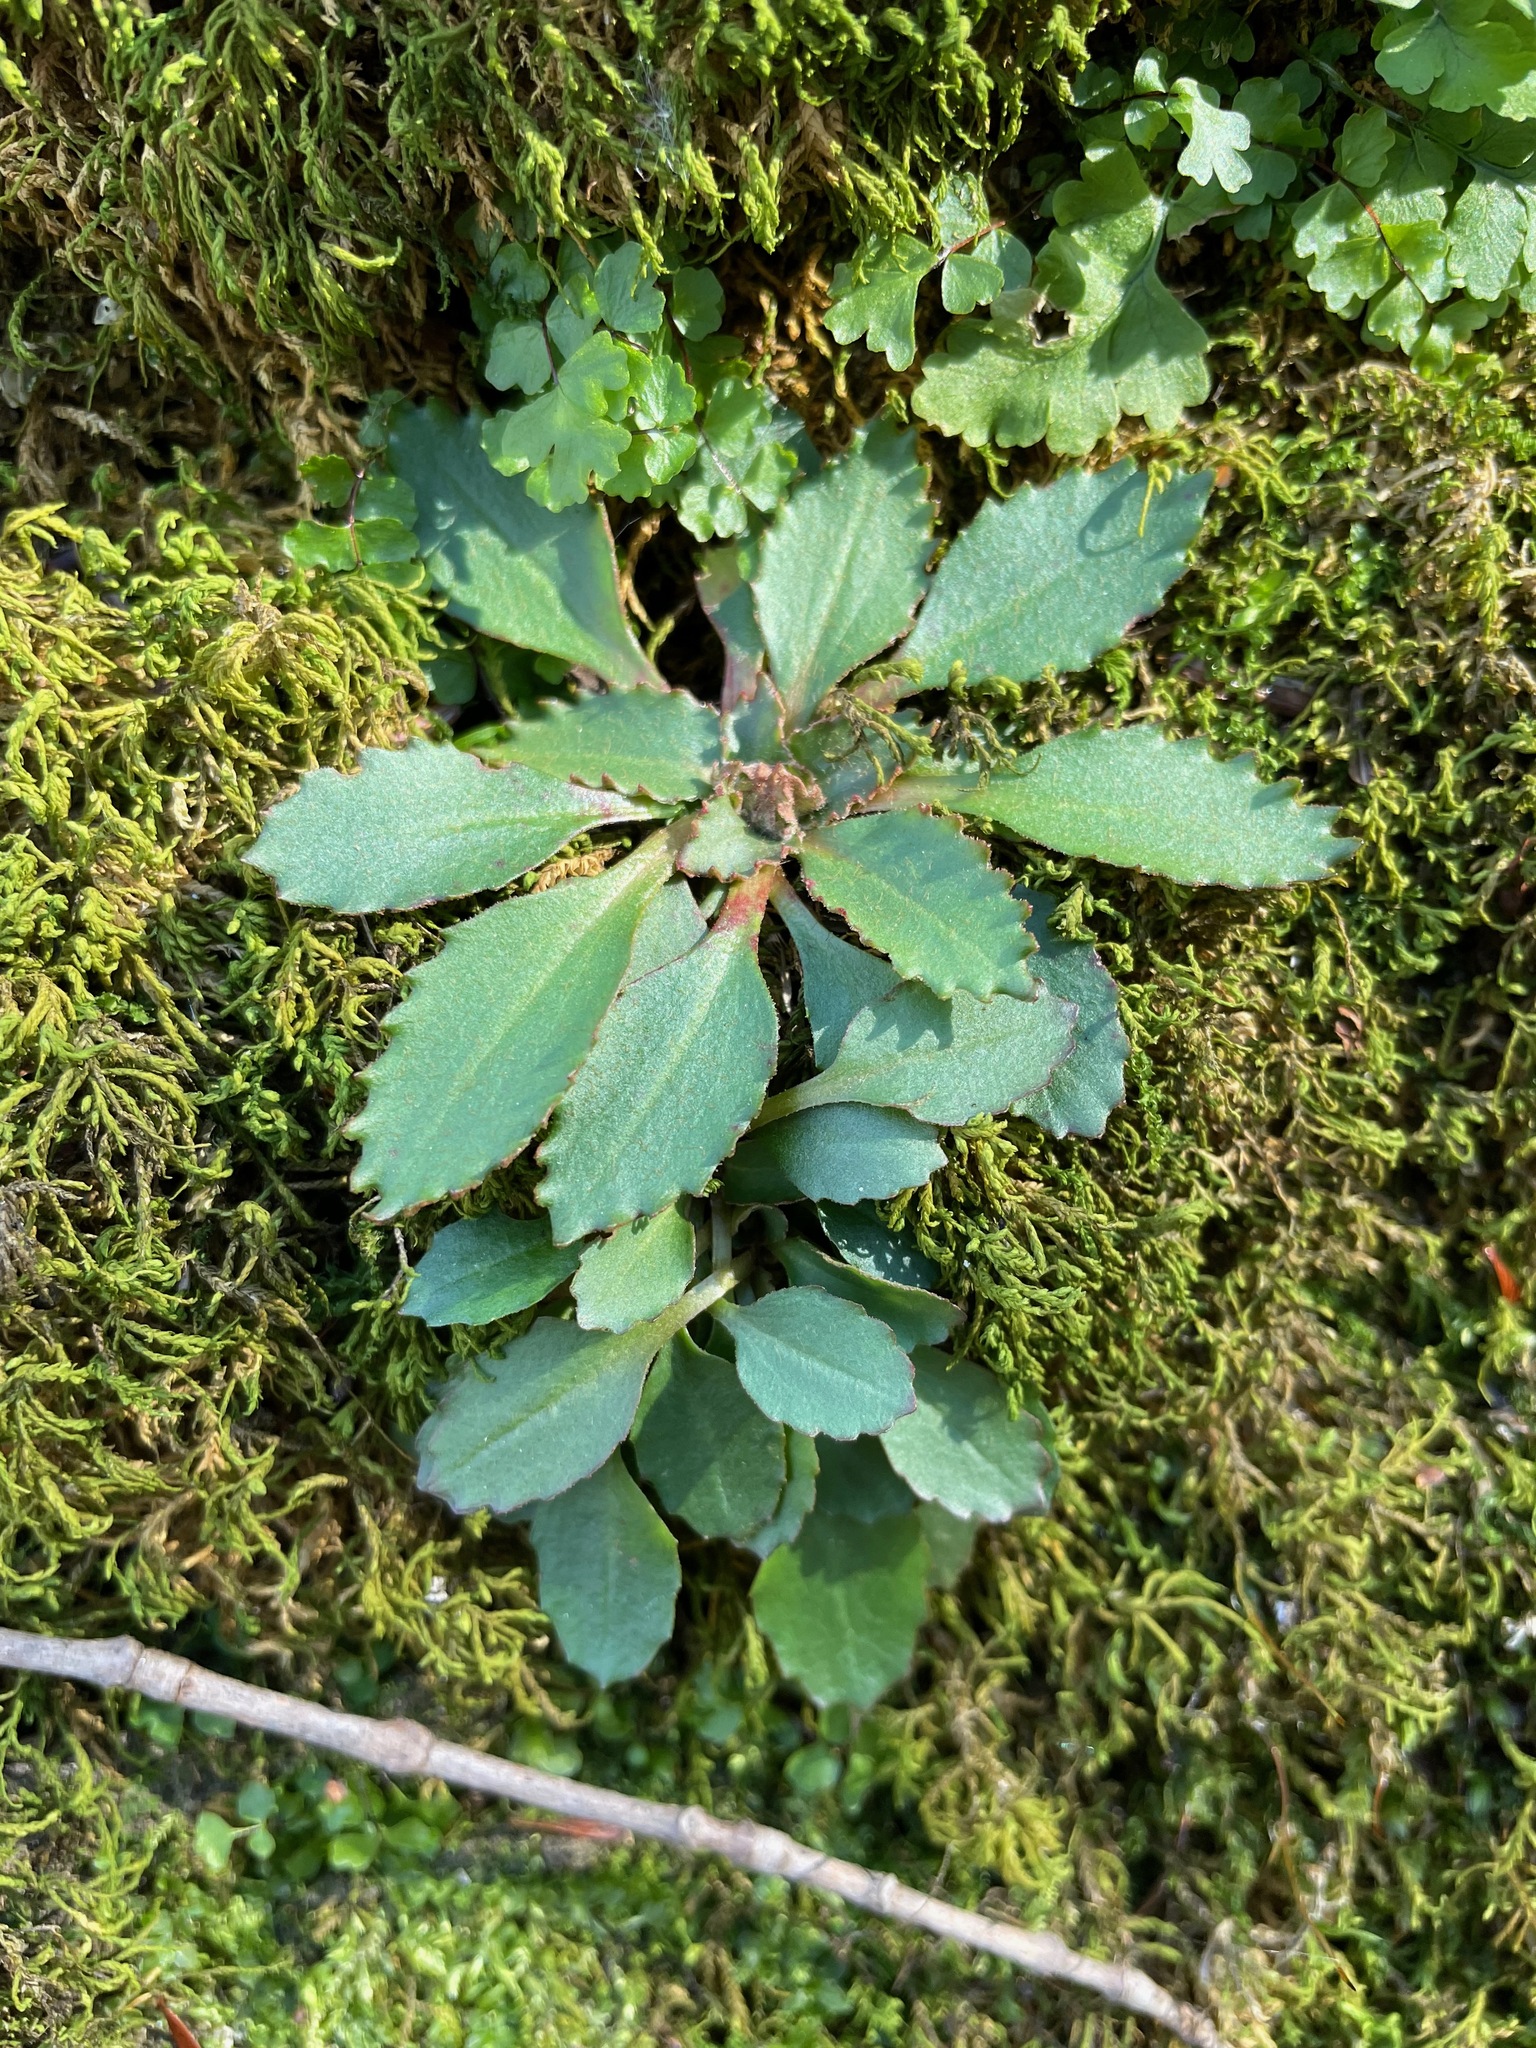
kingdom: Plantae
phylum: Tracheophyta
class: Magnoliopsida
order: Saxifragales
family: Saxifragaceae
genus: Micranthes
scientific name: Micranthes virginiensis
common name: Early saxifrage
